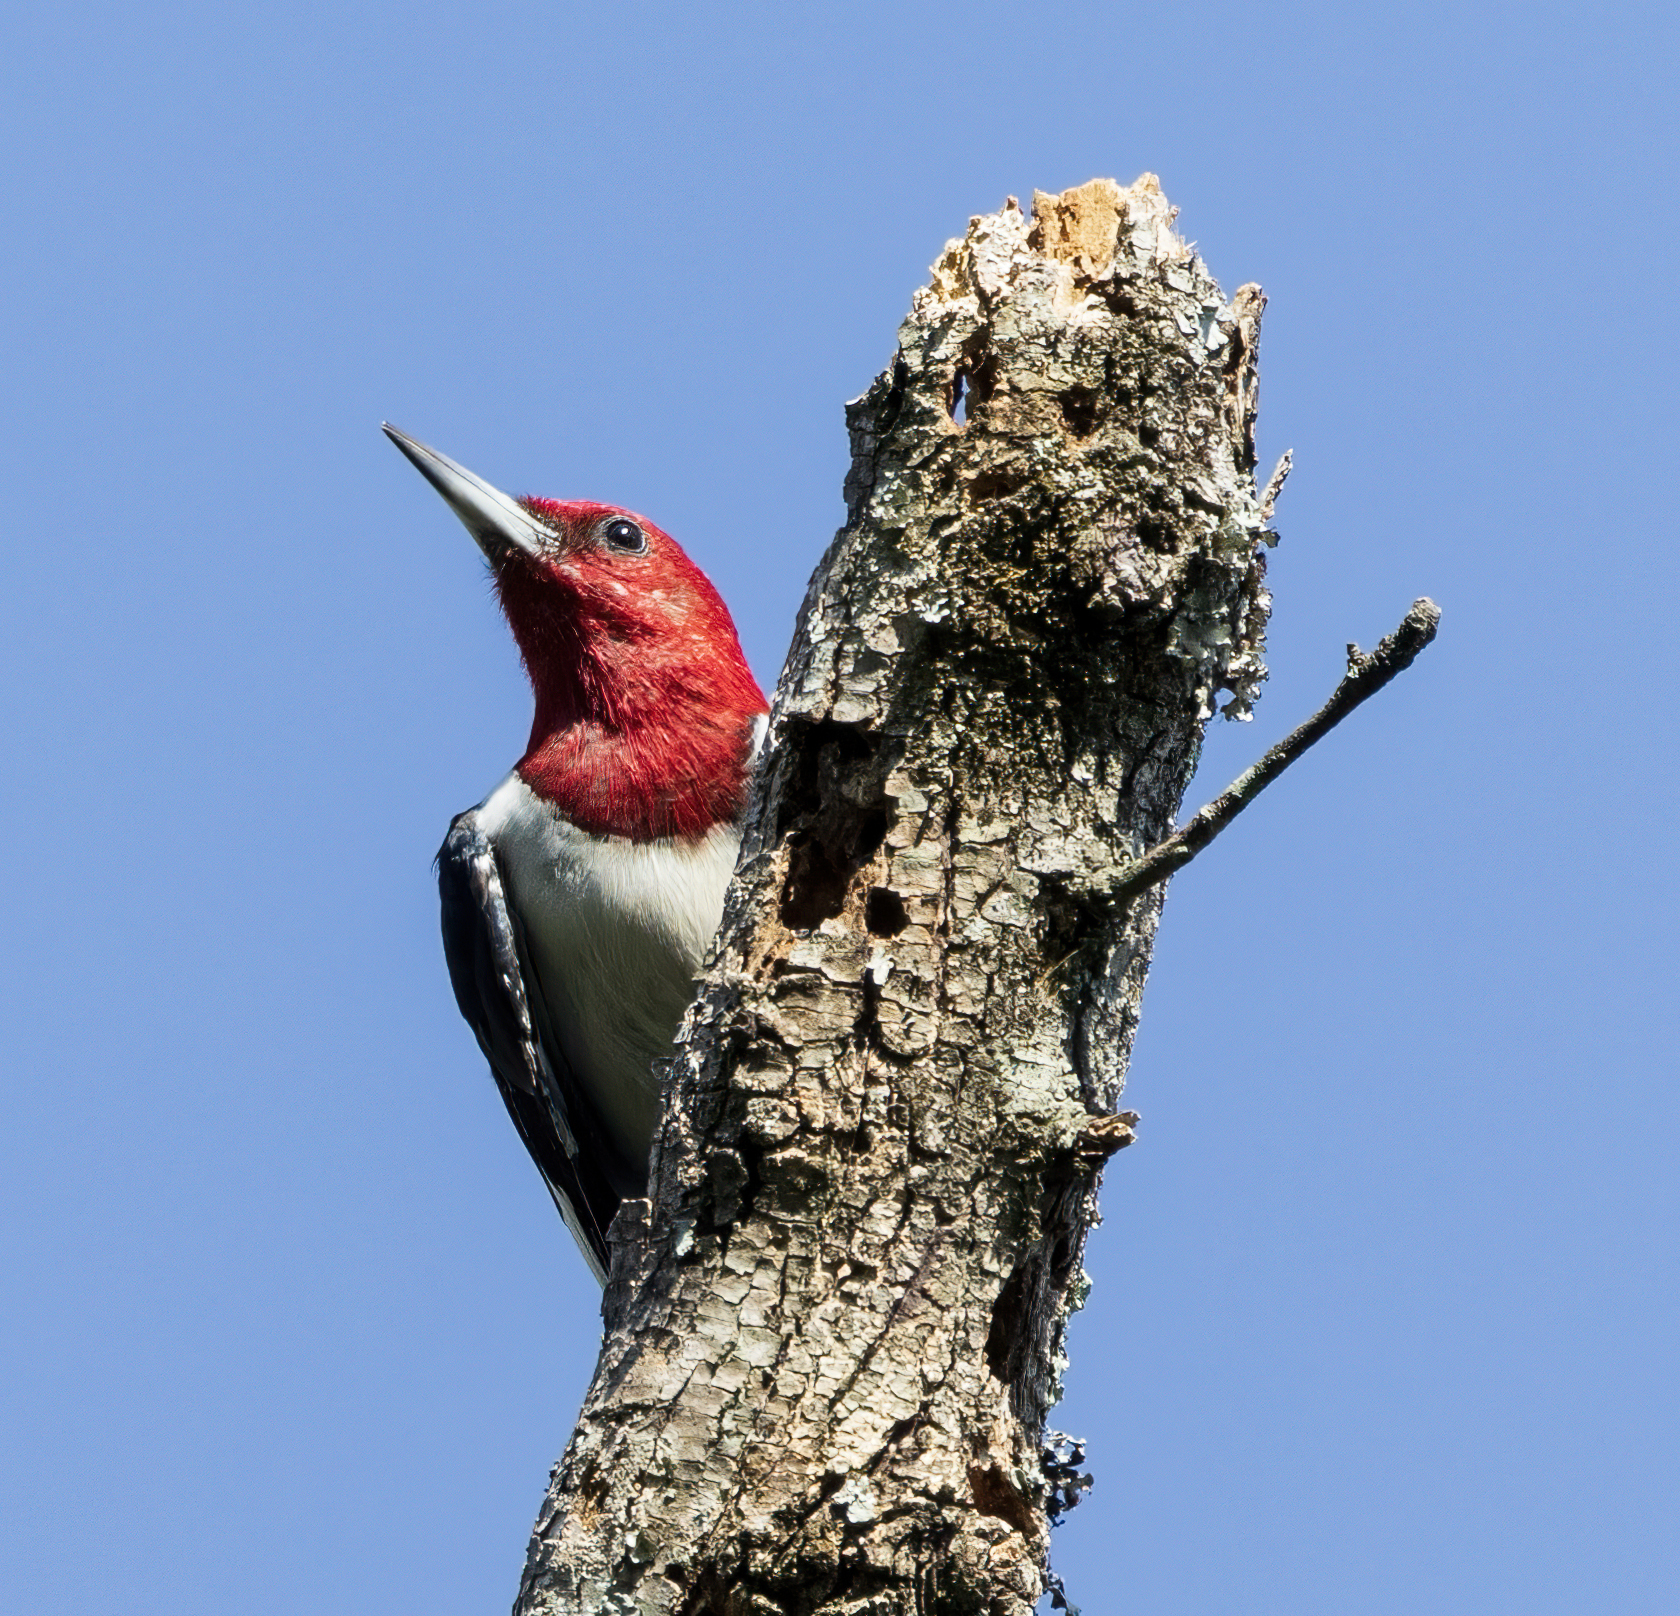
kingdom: Animalia
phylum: Chordata
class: Aves
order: Piciformes
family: Picidae
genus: Melanerpes
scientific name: Melanerpes erythrocephalus
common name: Red-headed woodpecker
